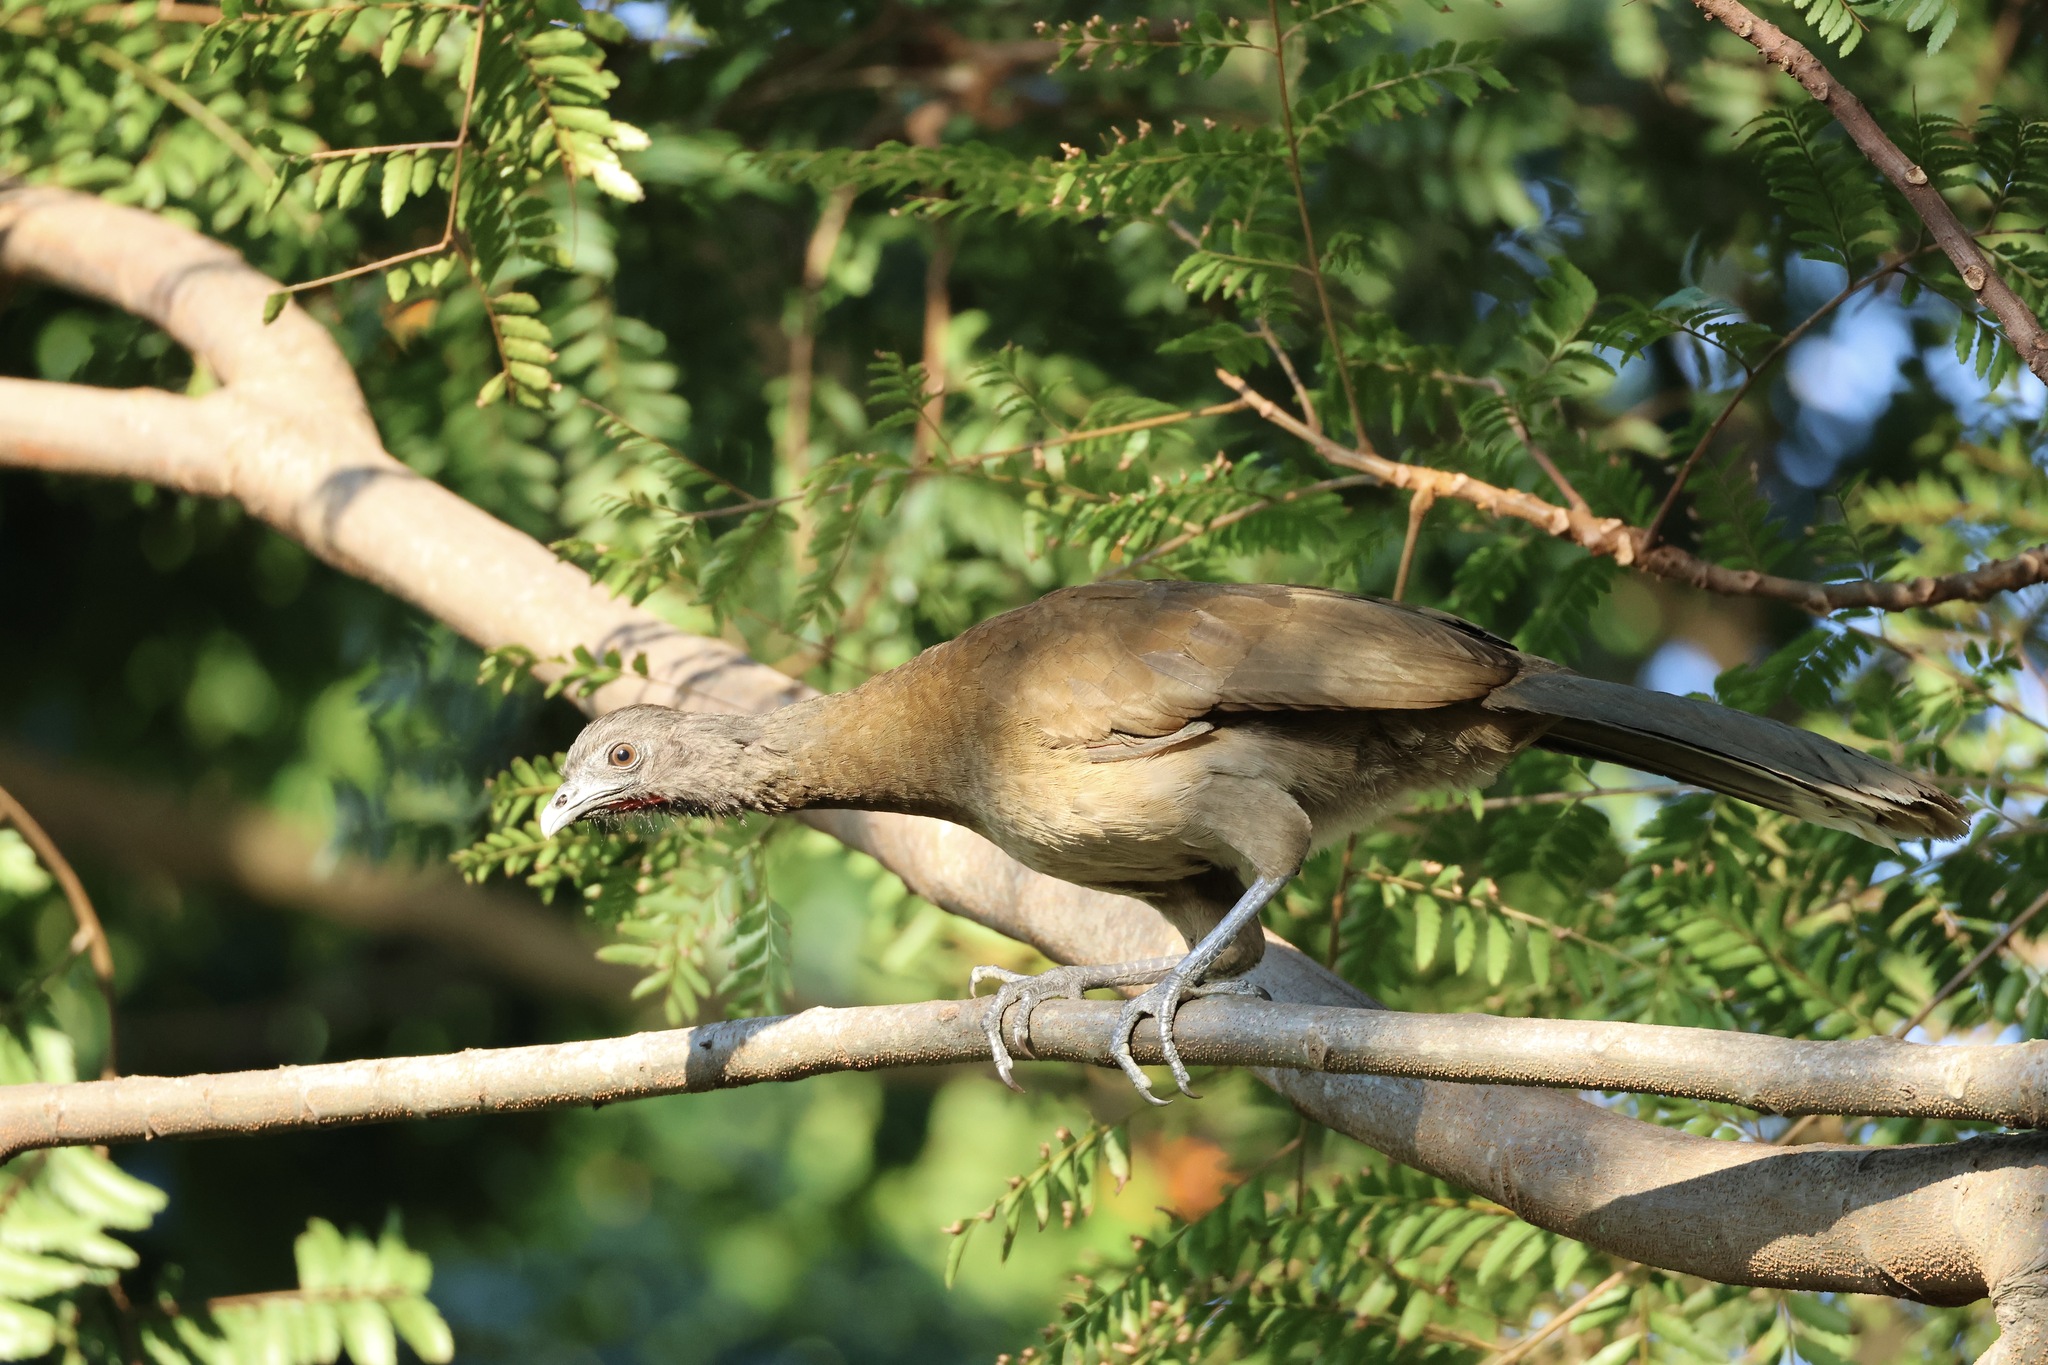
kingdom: Animalia
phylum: Chordata
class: Aves
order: Galliformes
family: Cracidae
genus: Ortalis
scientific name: Ortalis cinereiceps
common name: Grey-headed chachalaca
